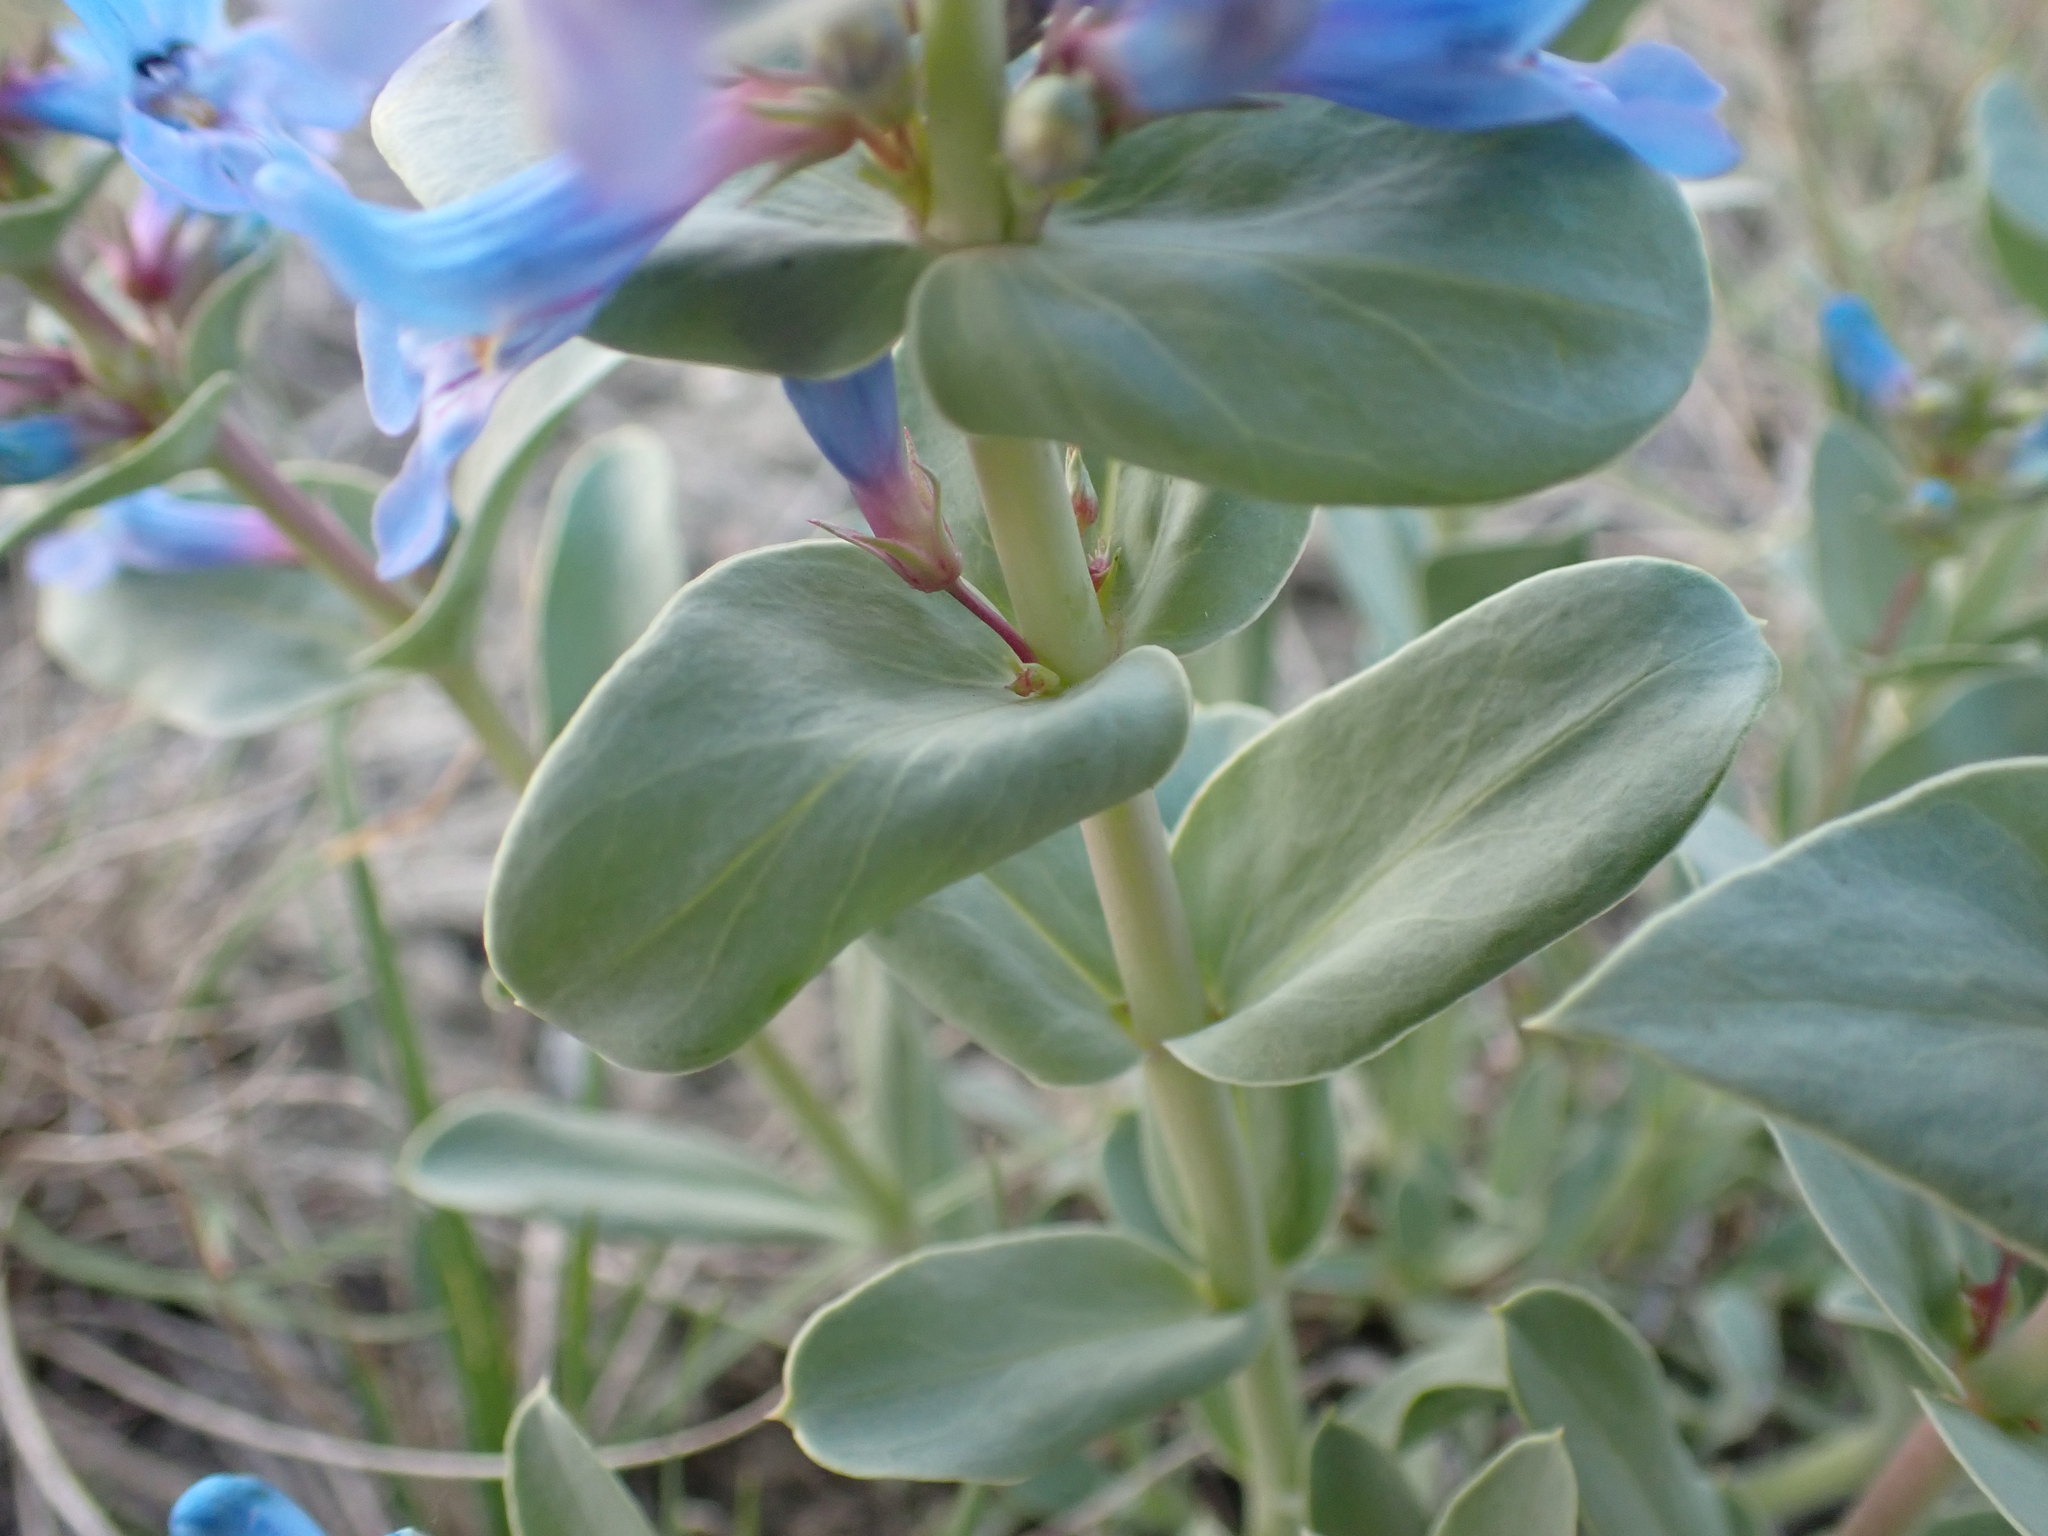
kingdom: Plantae
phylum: Tracheophyta
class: Magnoliopsida
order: Lamiales
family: Plantaginaceae
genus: Penstemon
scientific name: Penstemon nitidus
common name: Shining penstemon
